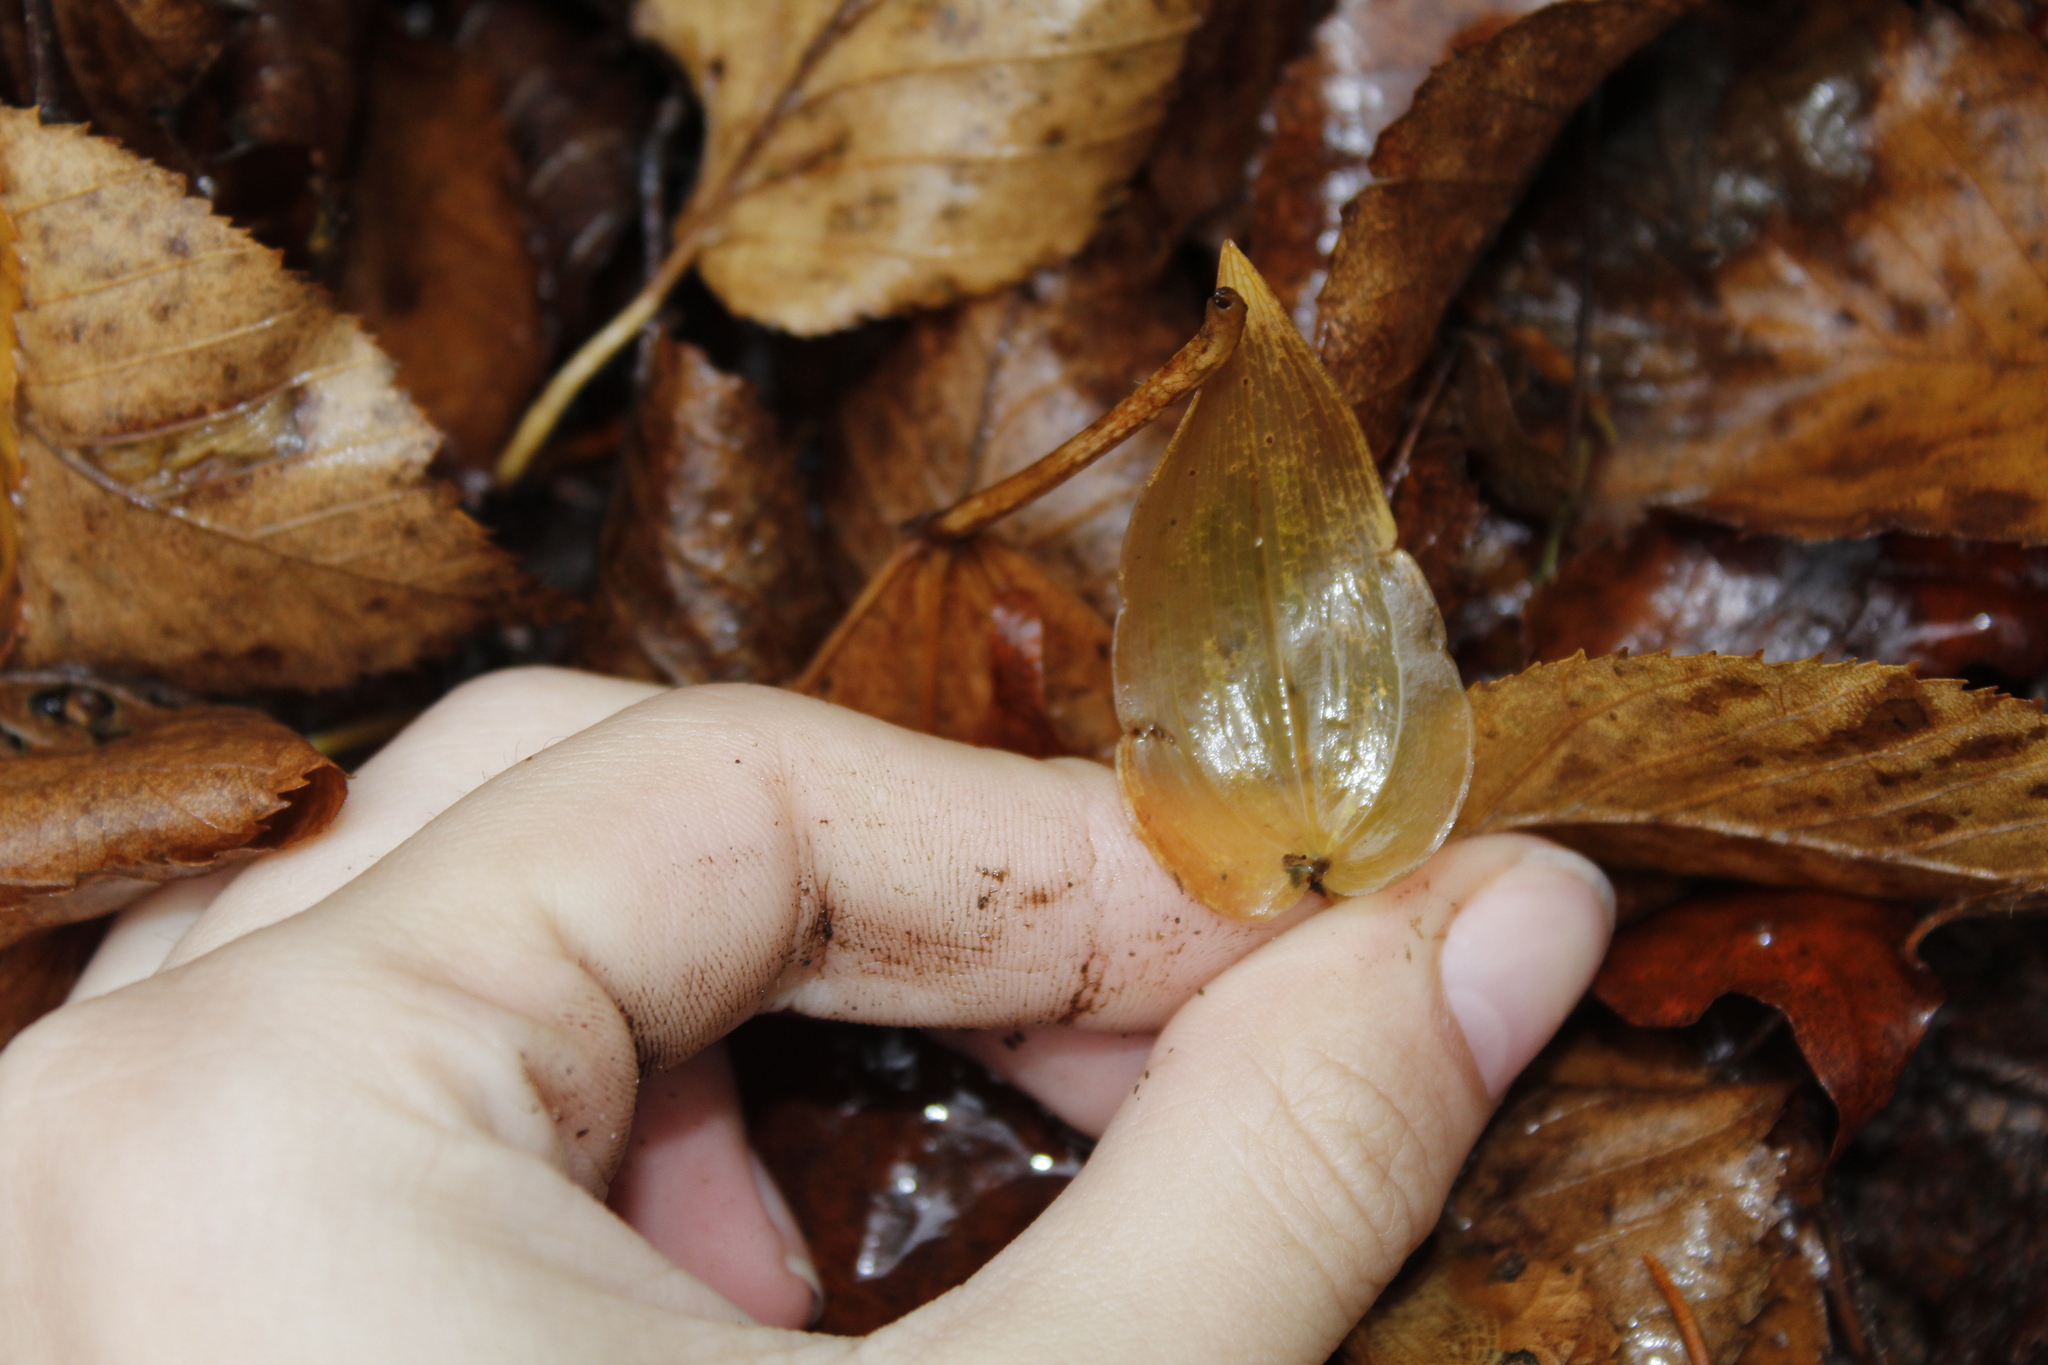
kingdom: Plantae
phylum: Tracheophyta
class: Liliopsida
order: Asparagales
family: Asparagaceae
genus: Maianthemum
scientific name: Maianthemum canadense
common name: False lily-of-the-valley
